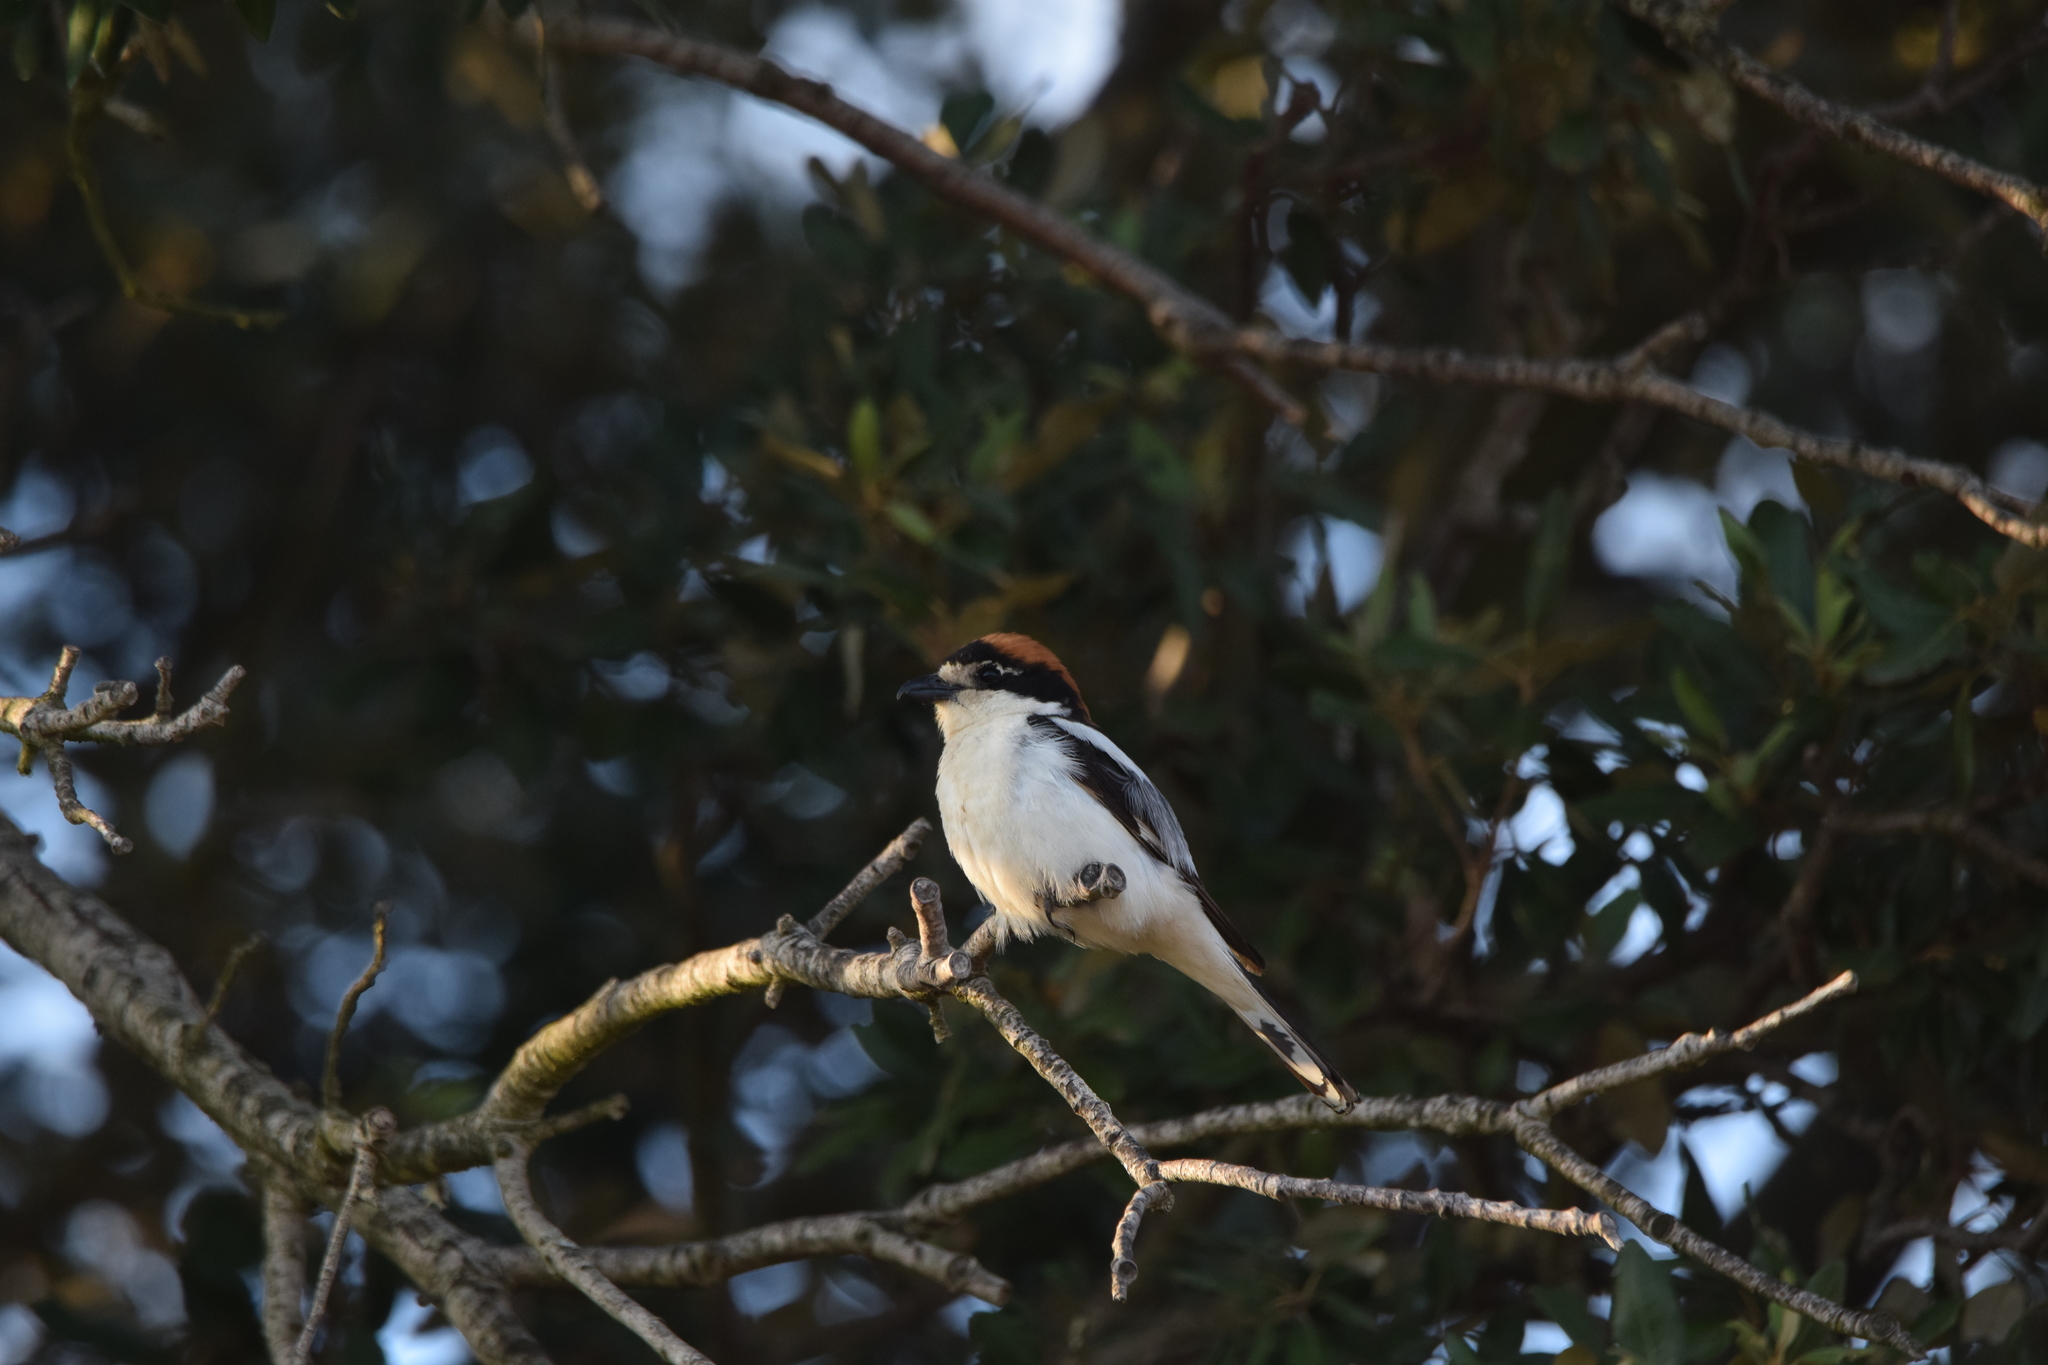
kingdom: Animalia
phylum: Chordata
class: Aves
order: Passeriformes
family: Laniidae
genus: Lanius
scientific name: Lanius senator
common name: Woodchat shrike
